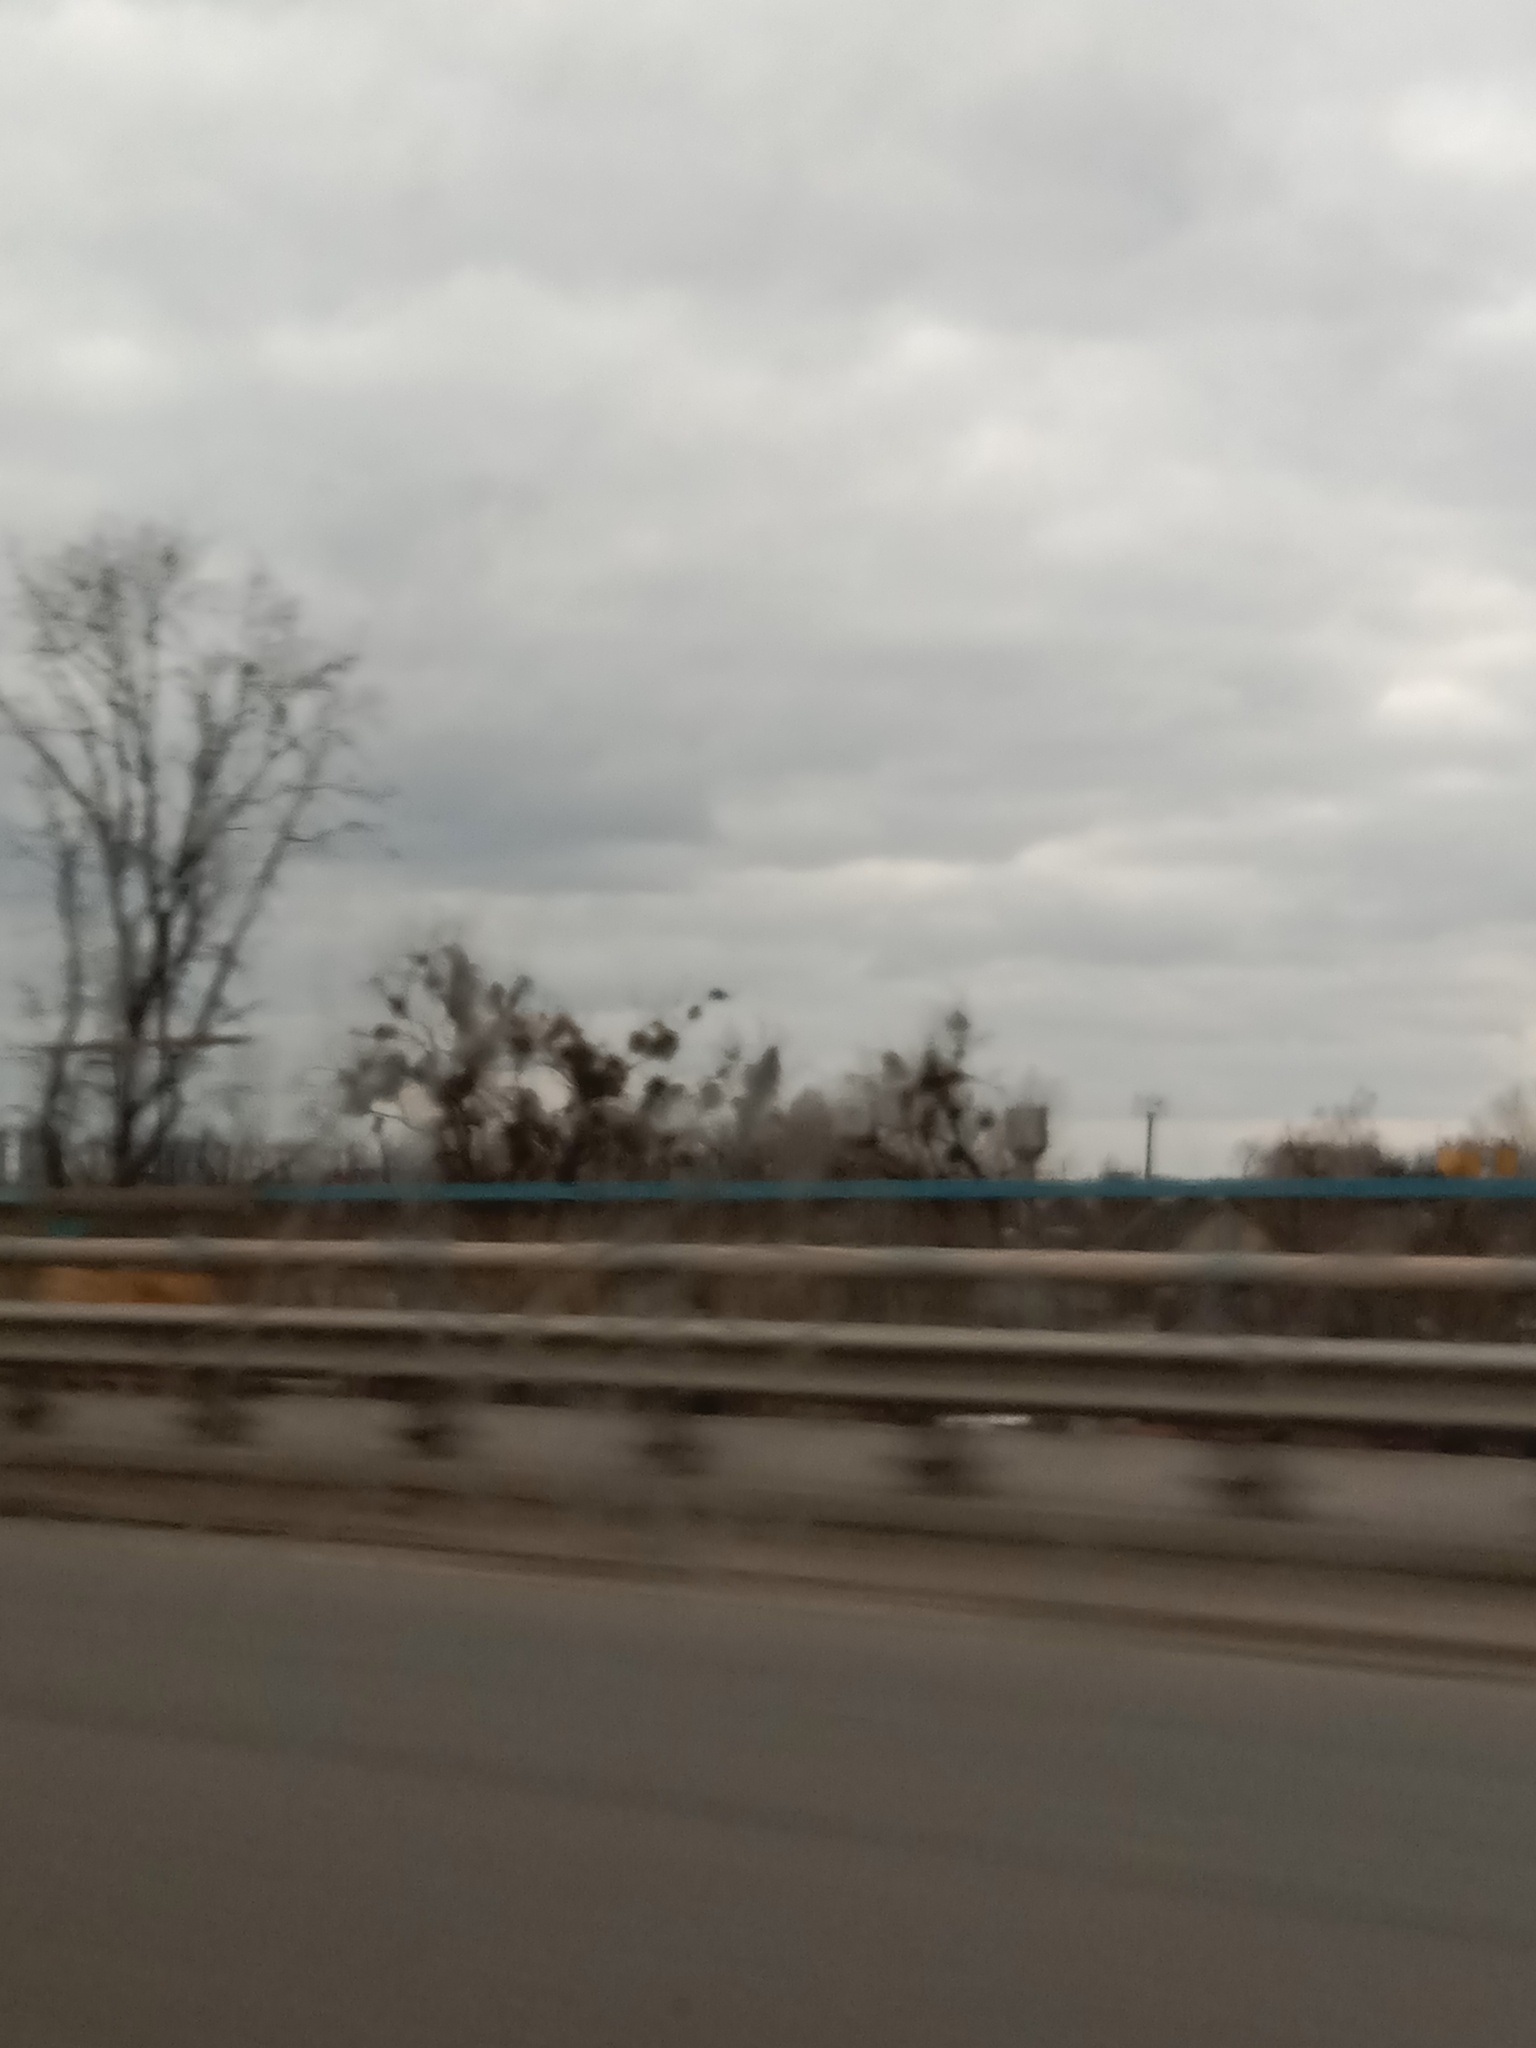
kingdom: Plantae
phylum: Tracheophyta
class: Magnoliopsida
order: Santalales
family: Viscaceae
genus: Viscum
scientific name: Viscum album
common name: Mistletoe
